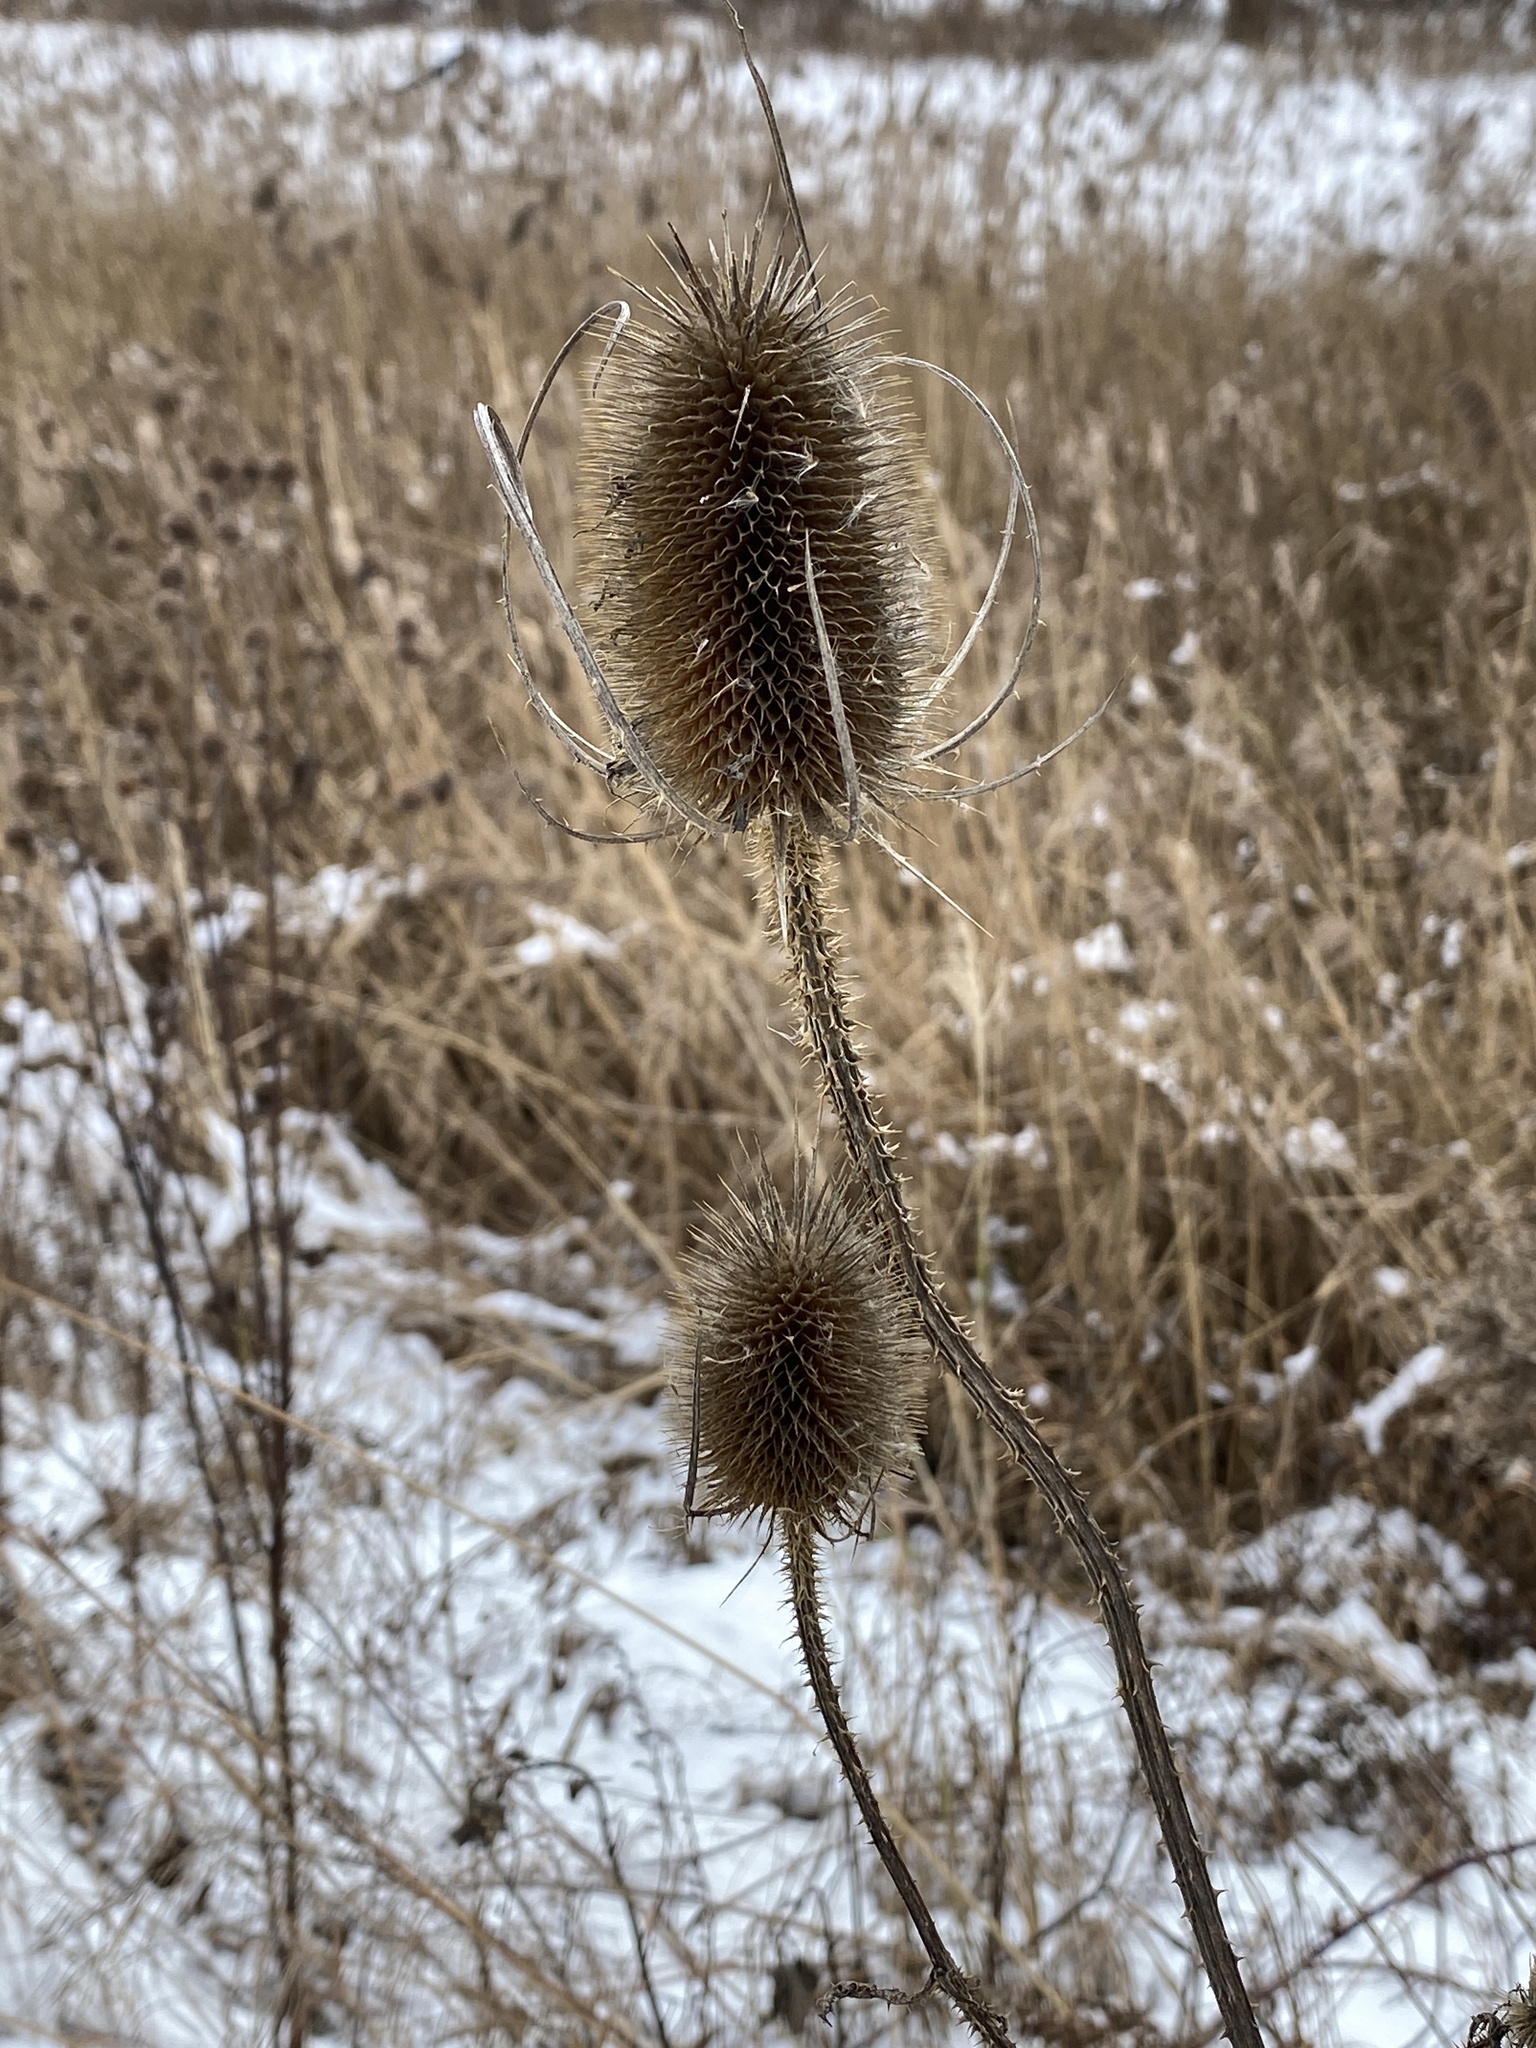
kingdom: Plantae
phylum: Tracheophyta
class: Magnoliopsida
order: Dipsacales
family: Caprifoliaceae
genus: Dipsacus
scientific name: Dipsacus fullonum
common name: Teasel
